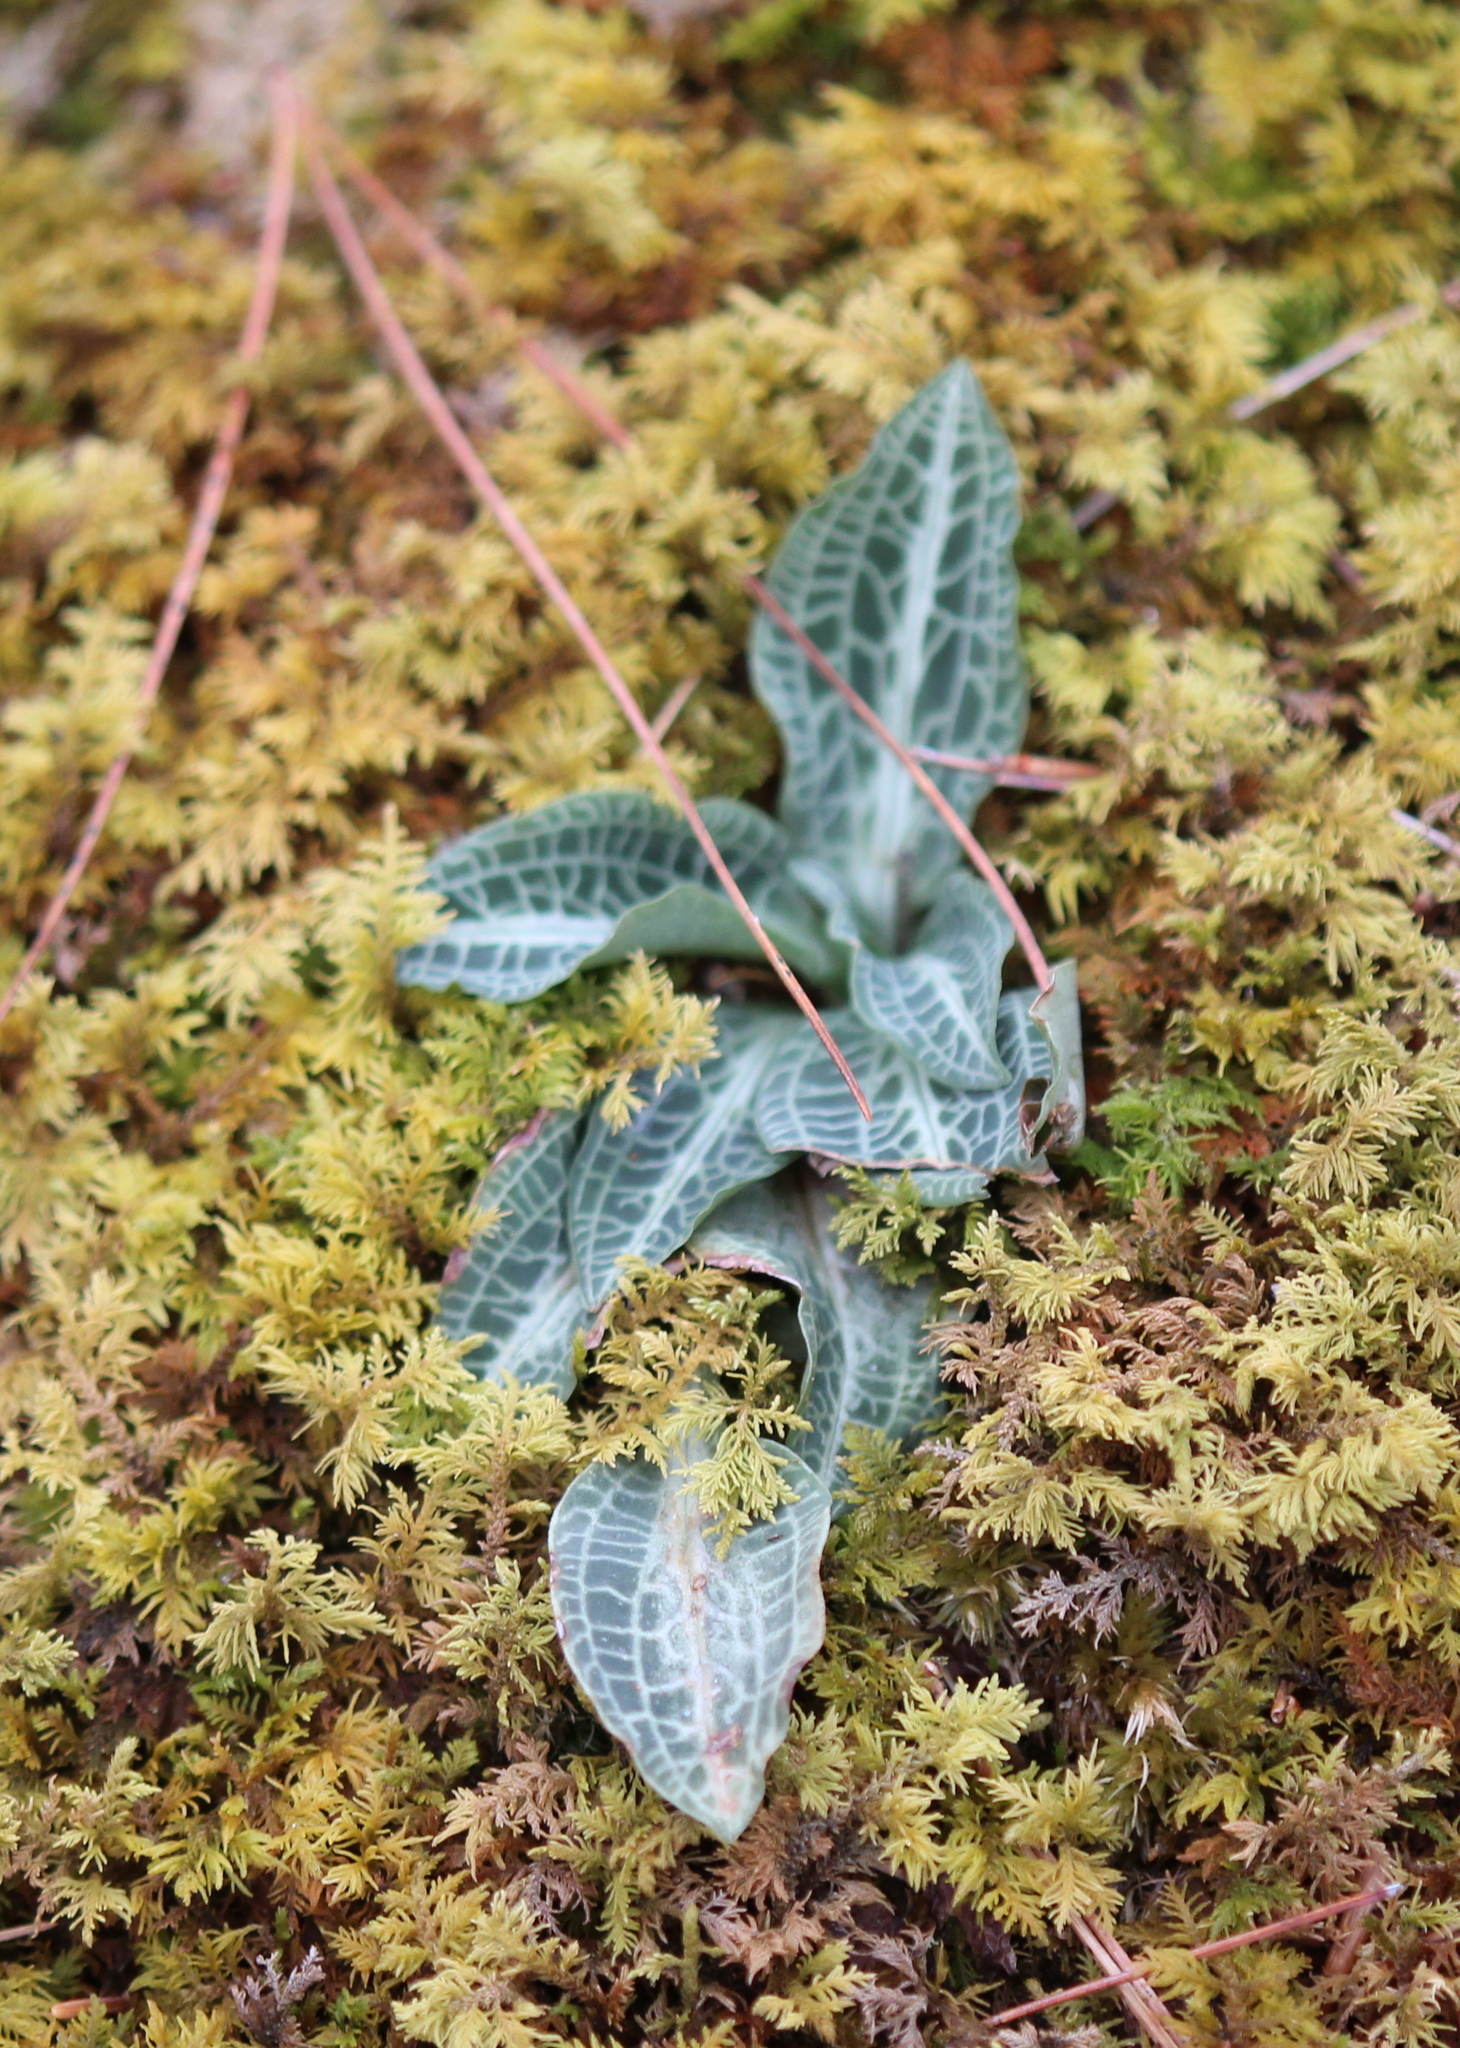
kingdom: Plantae
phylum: Tracheophyta
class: Liliopsida
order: Asparagales
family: Orchidaceae
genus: Goodyera
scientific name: Goodyera pubescens
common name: Downy rattlesnake-plantain
